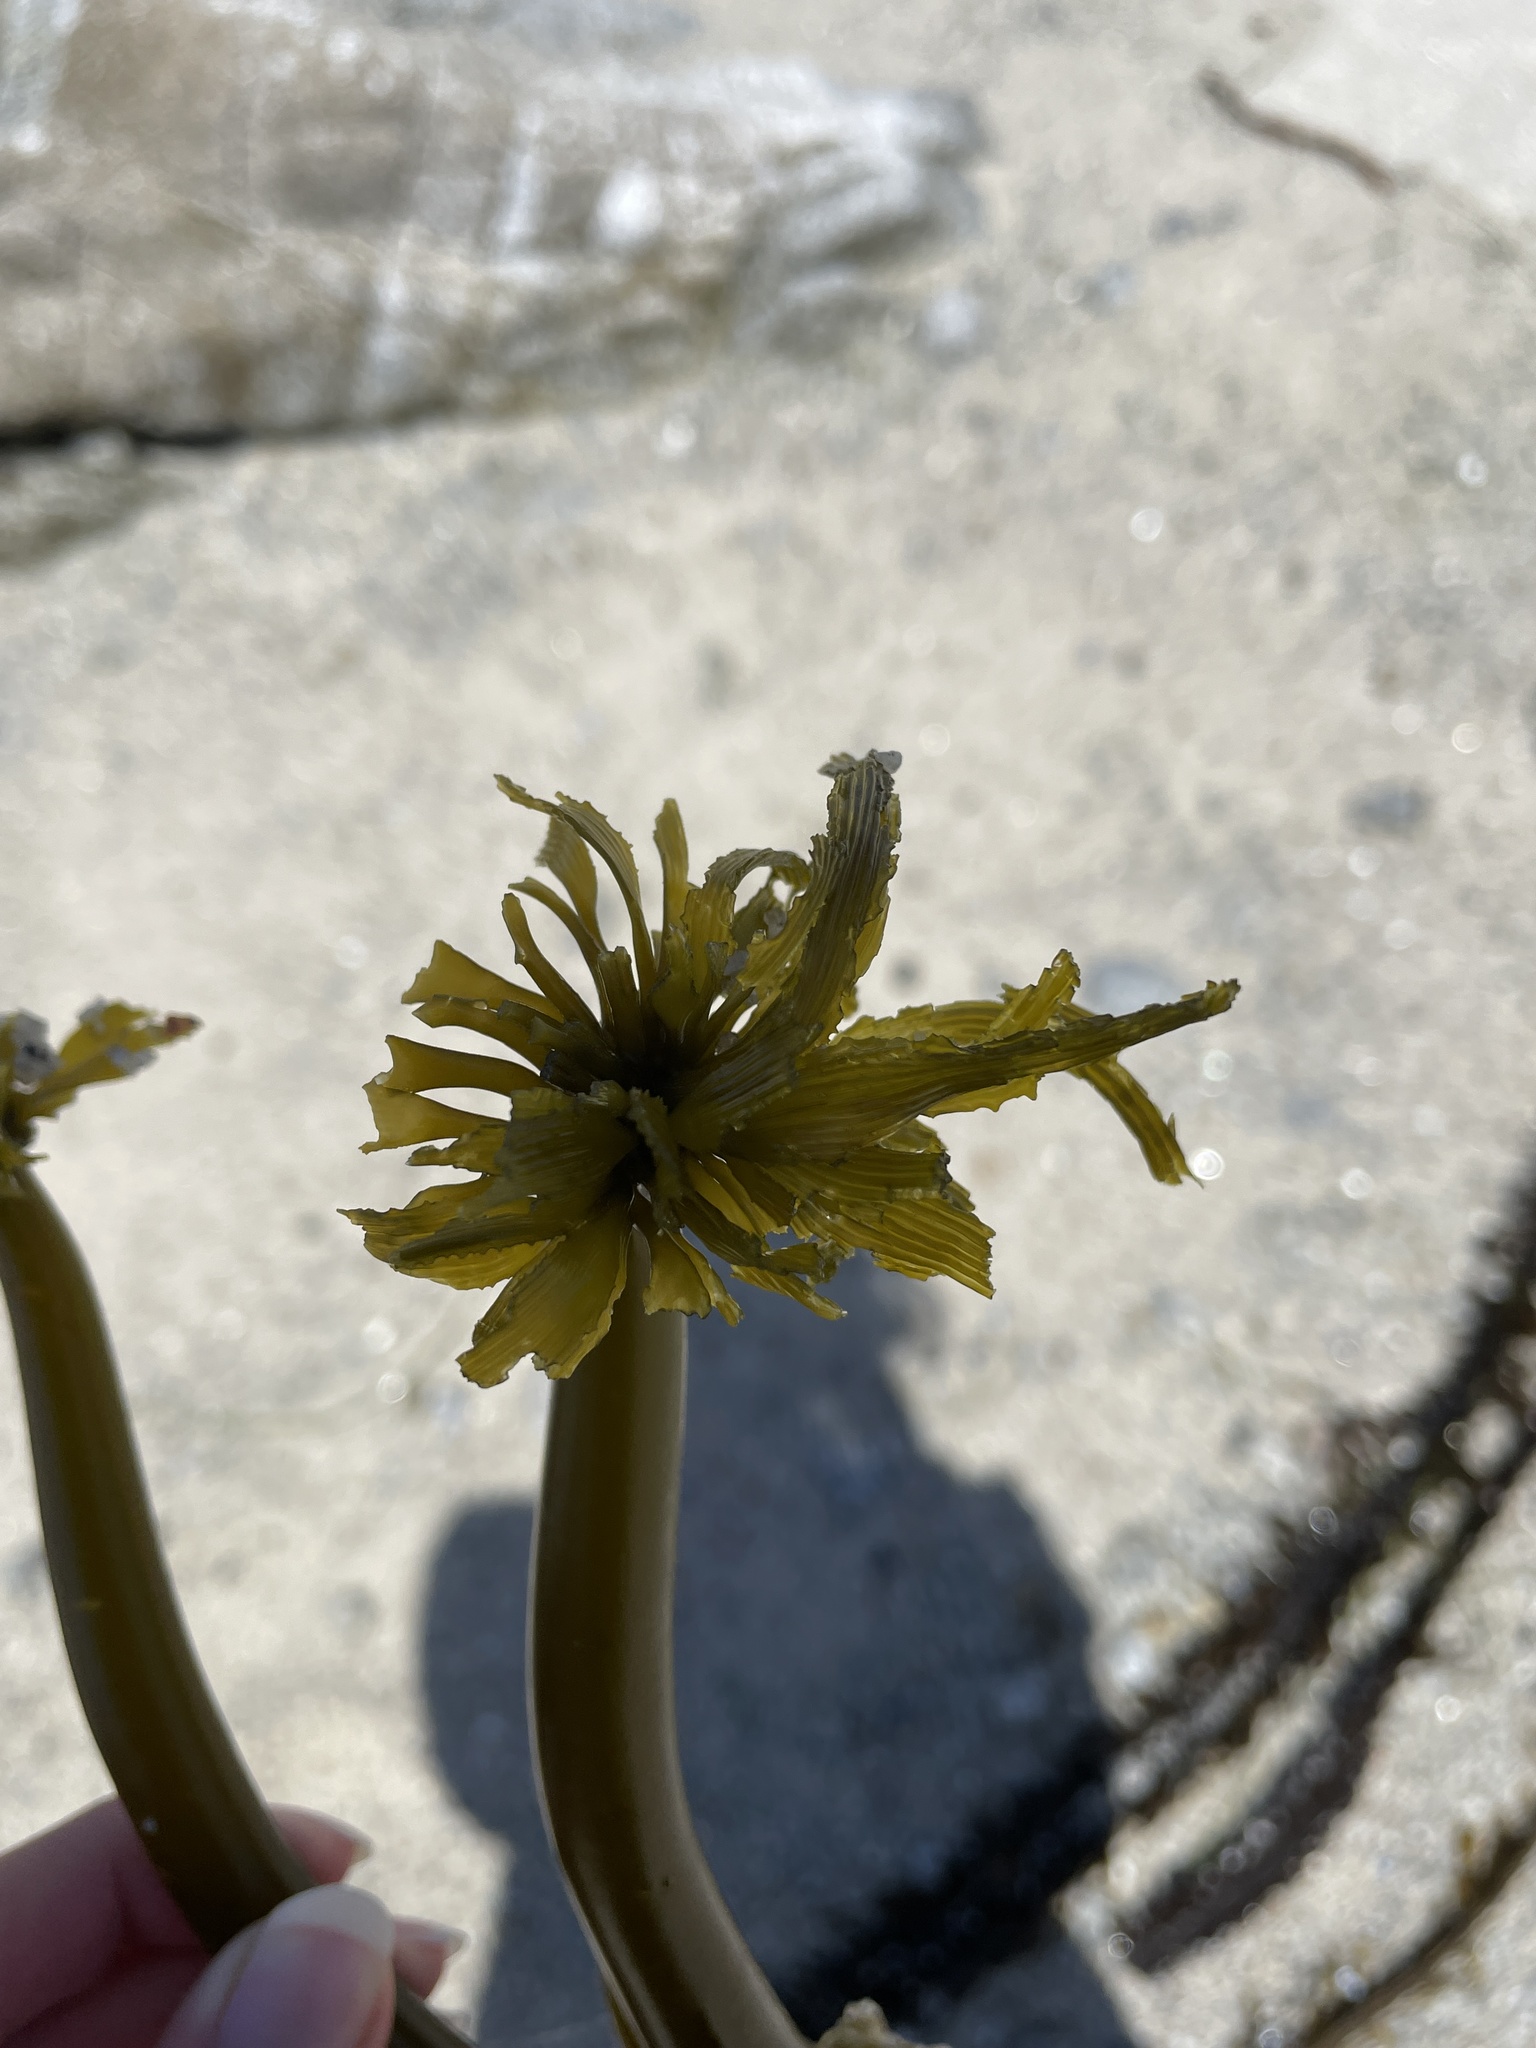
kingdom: Chromista
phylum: Ochrophyta
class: Phaeophyceae
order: Laminariales
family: Laminariaceae
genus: Postelsia
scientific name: Postelsia palmiformis
